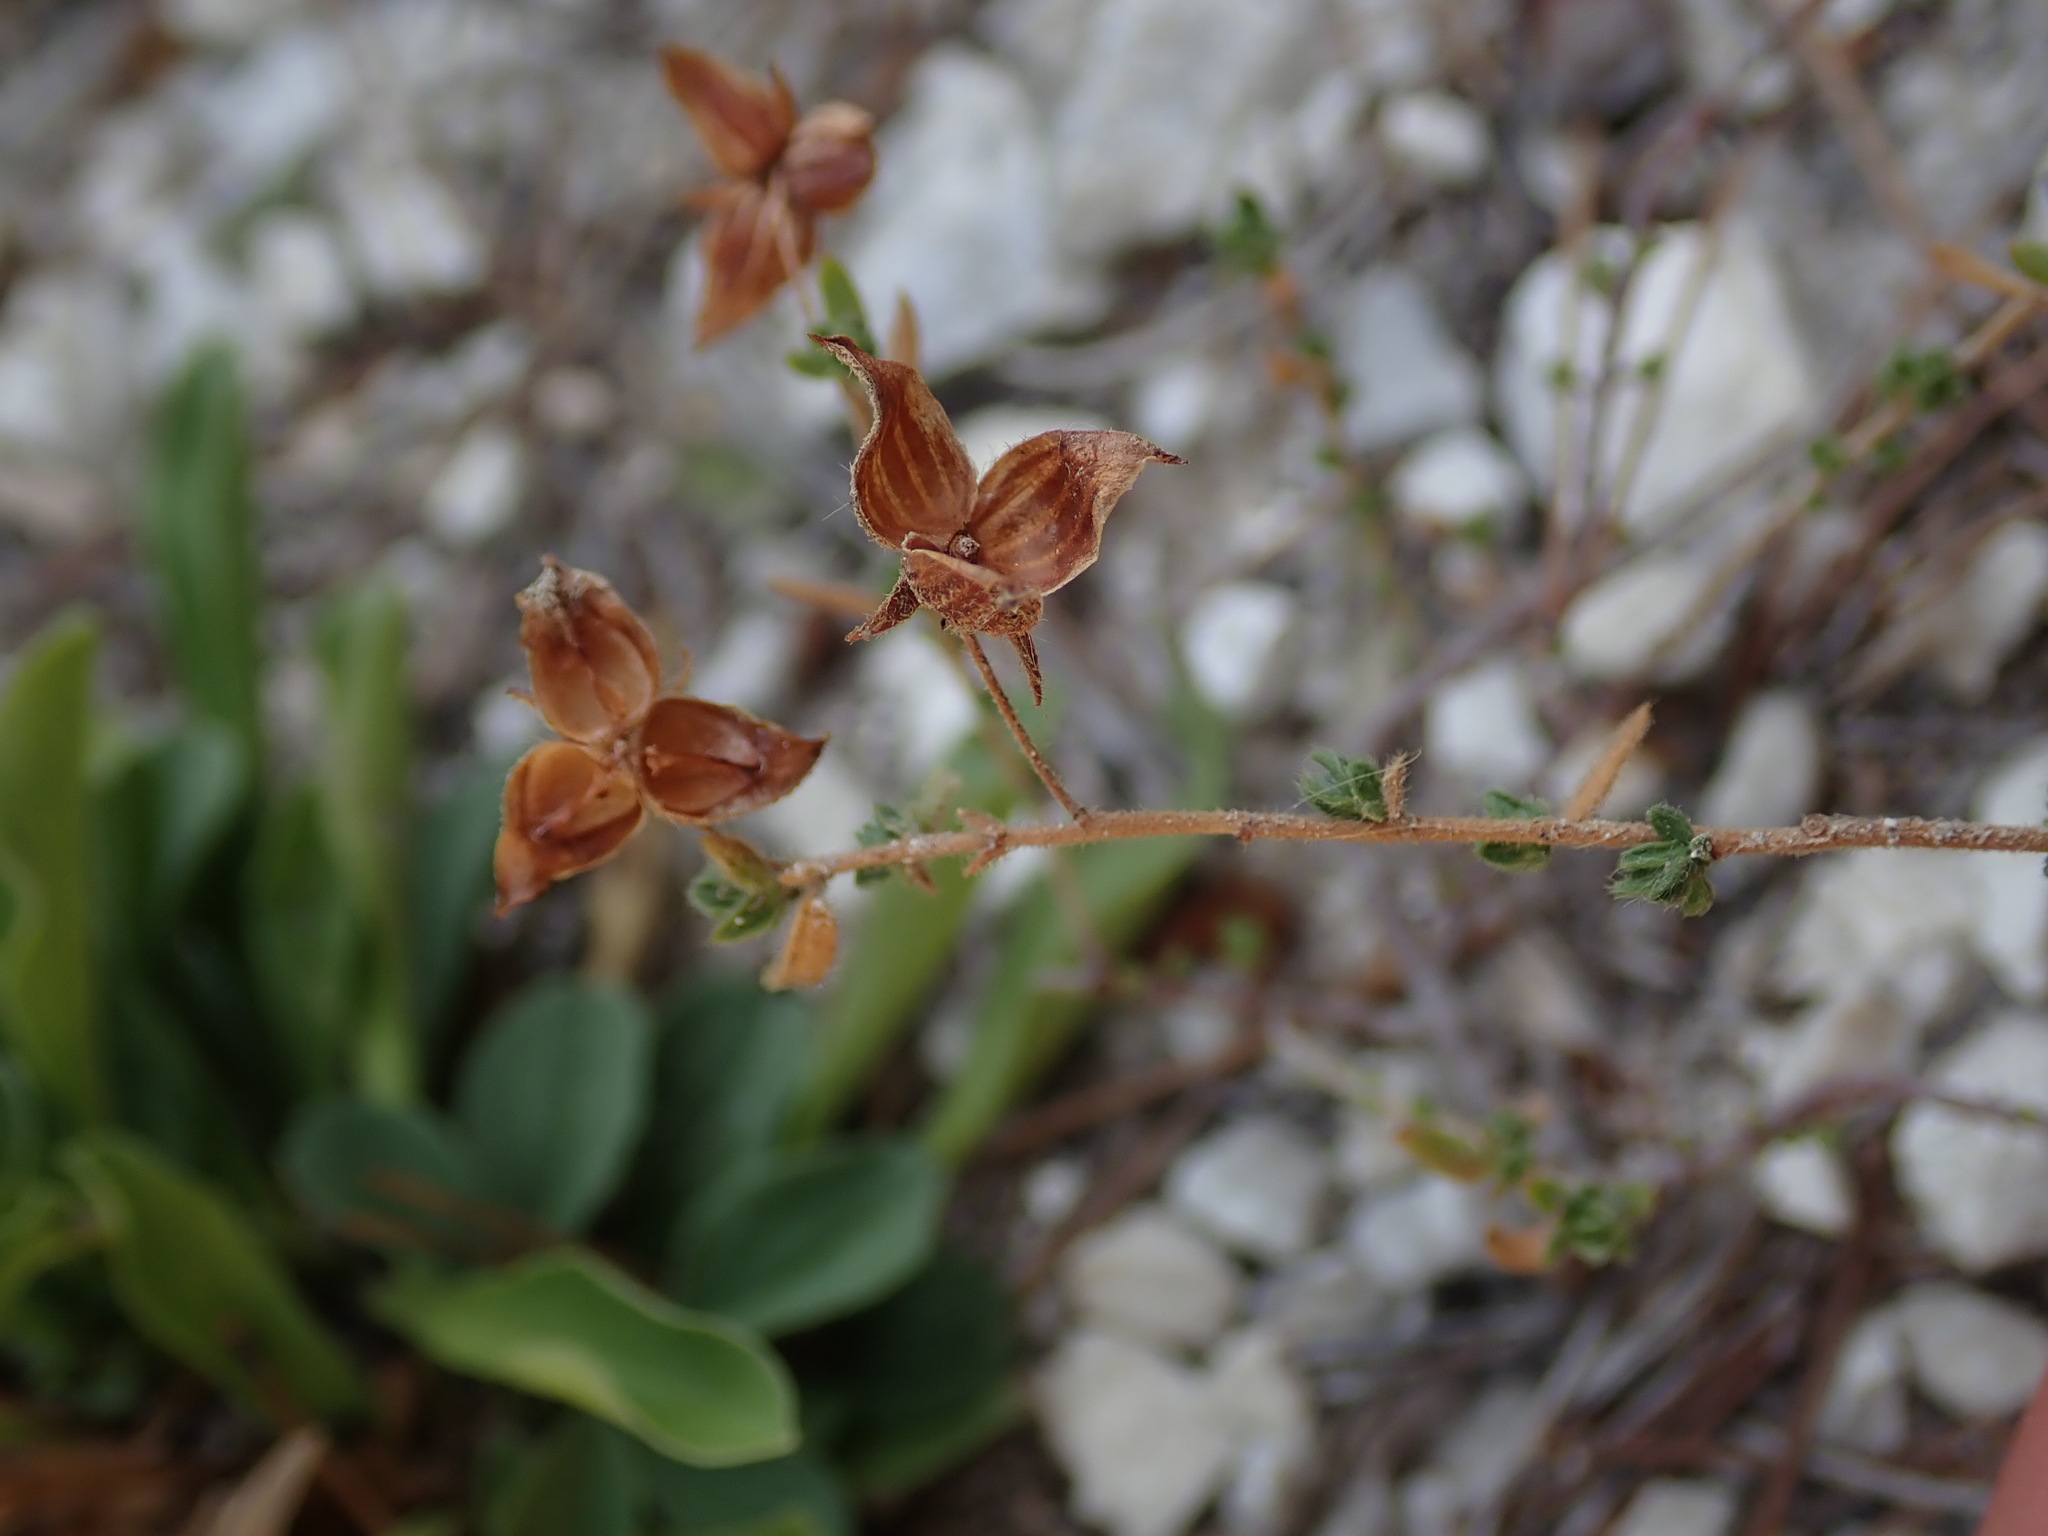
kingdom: Plantae
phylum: Tracheophyta
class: Magnoliopsida
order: Malvales
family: Cistaceae
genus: Fumana
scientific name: Fumana thymifolia
